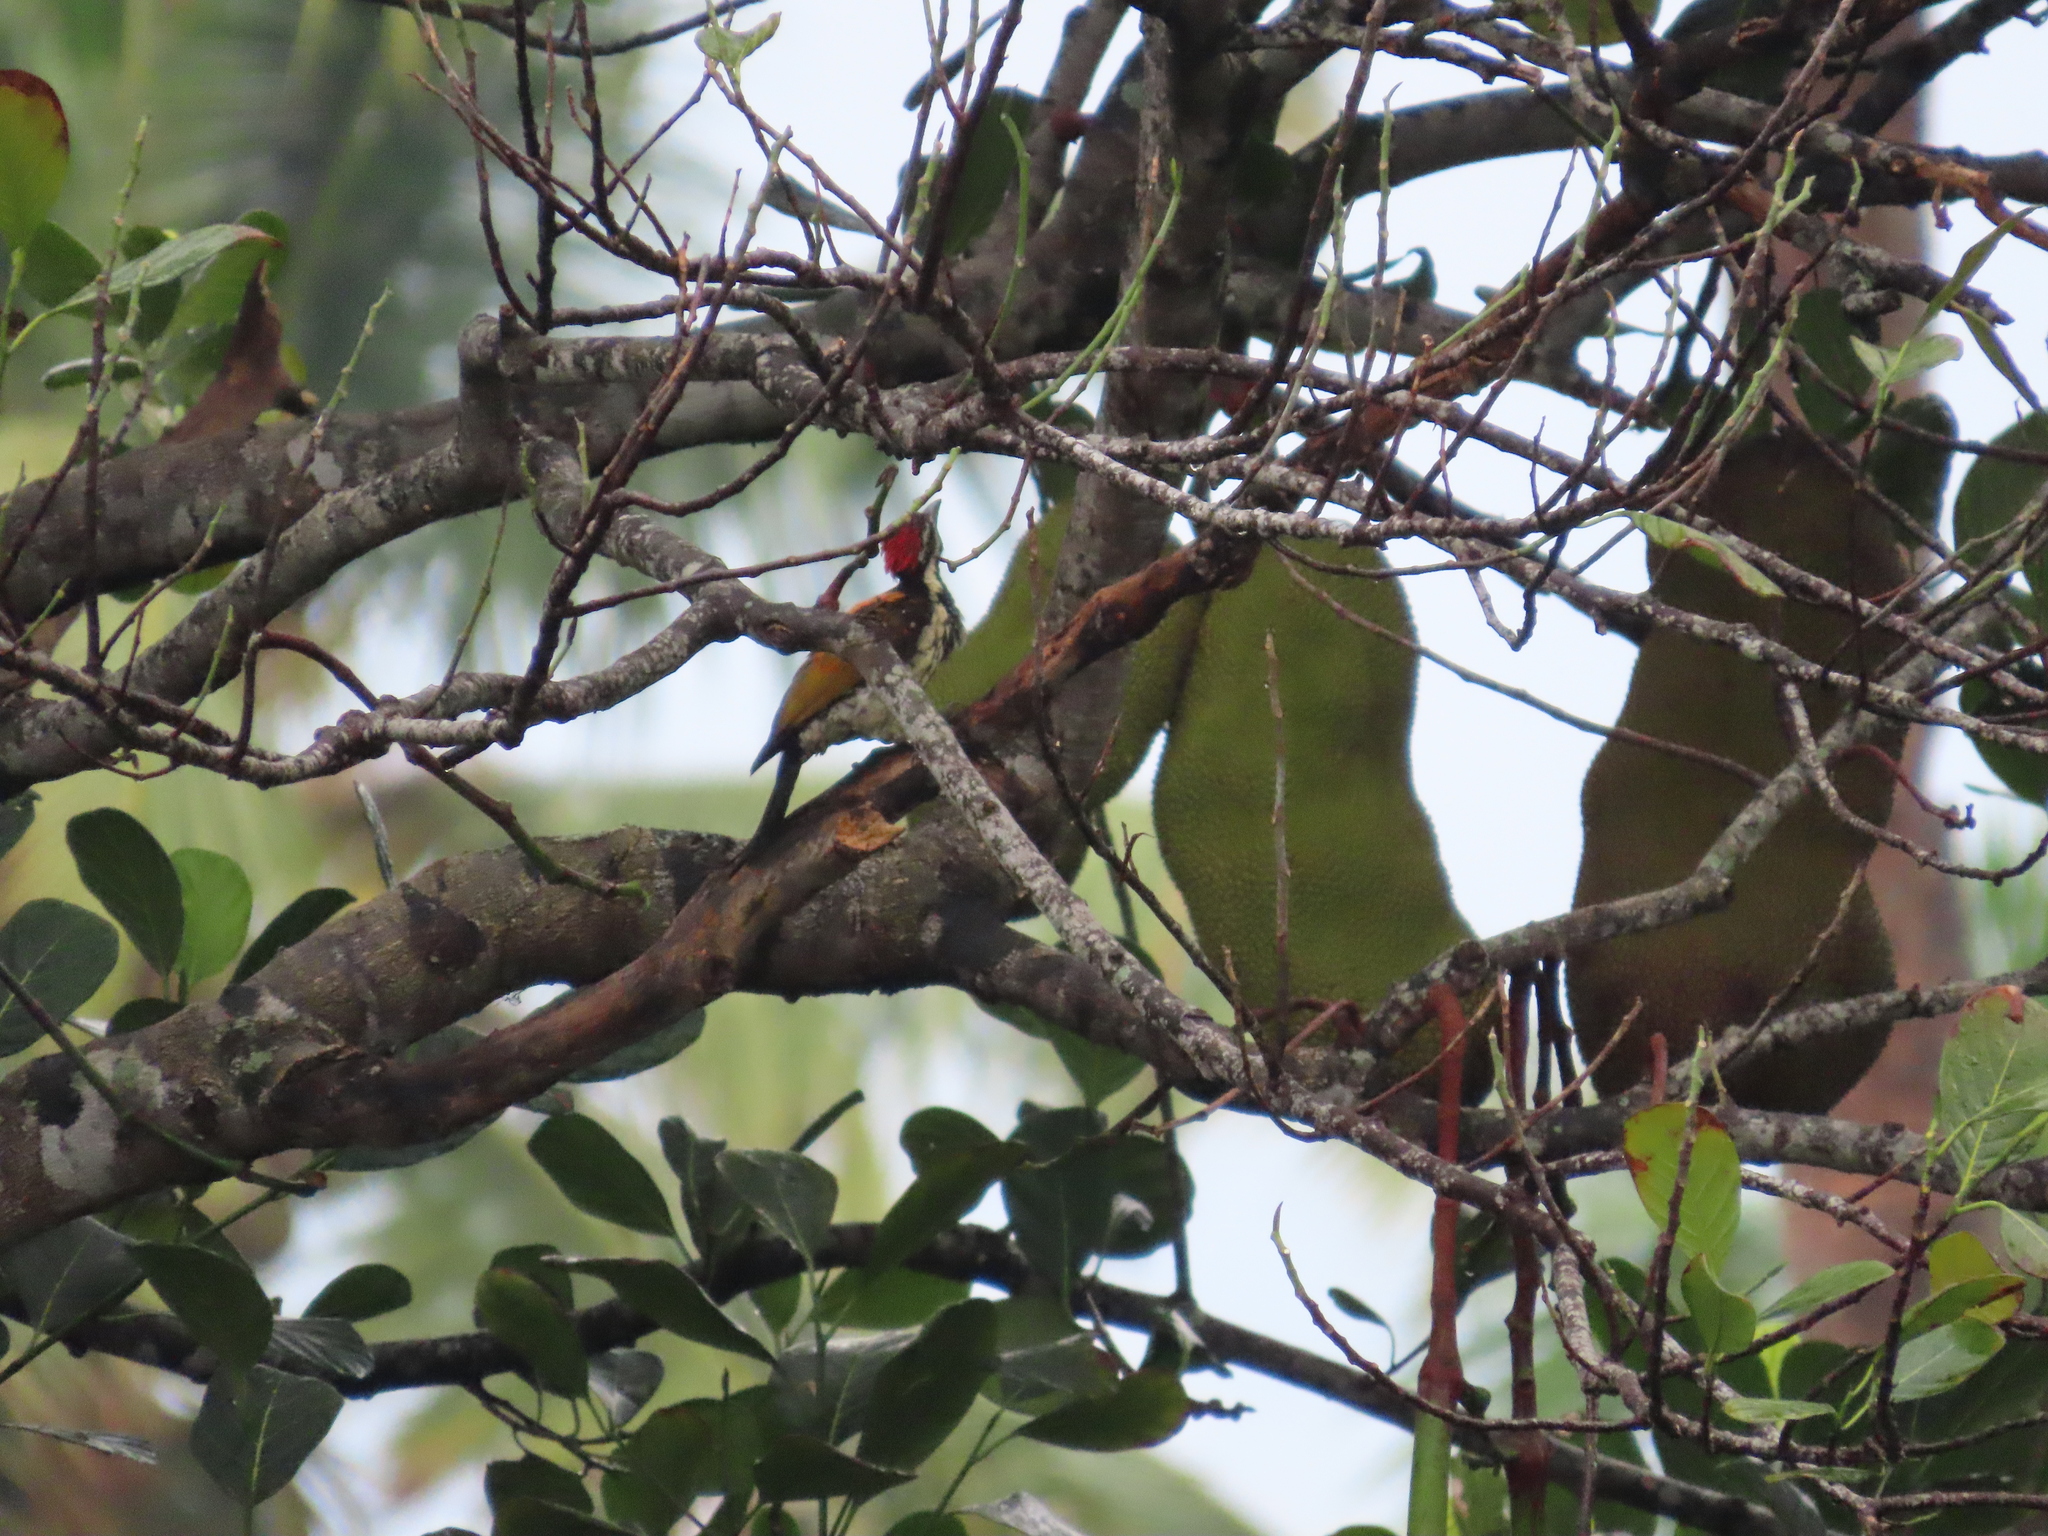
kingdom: Animalia
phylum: Chordata
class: Aves
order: Piciformes
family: Picidae
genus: Dinopium
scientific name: Dinopium benghalense
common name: Black-rumped flameback
